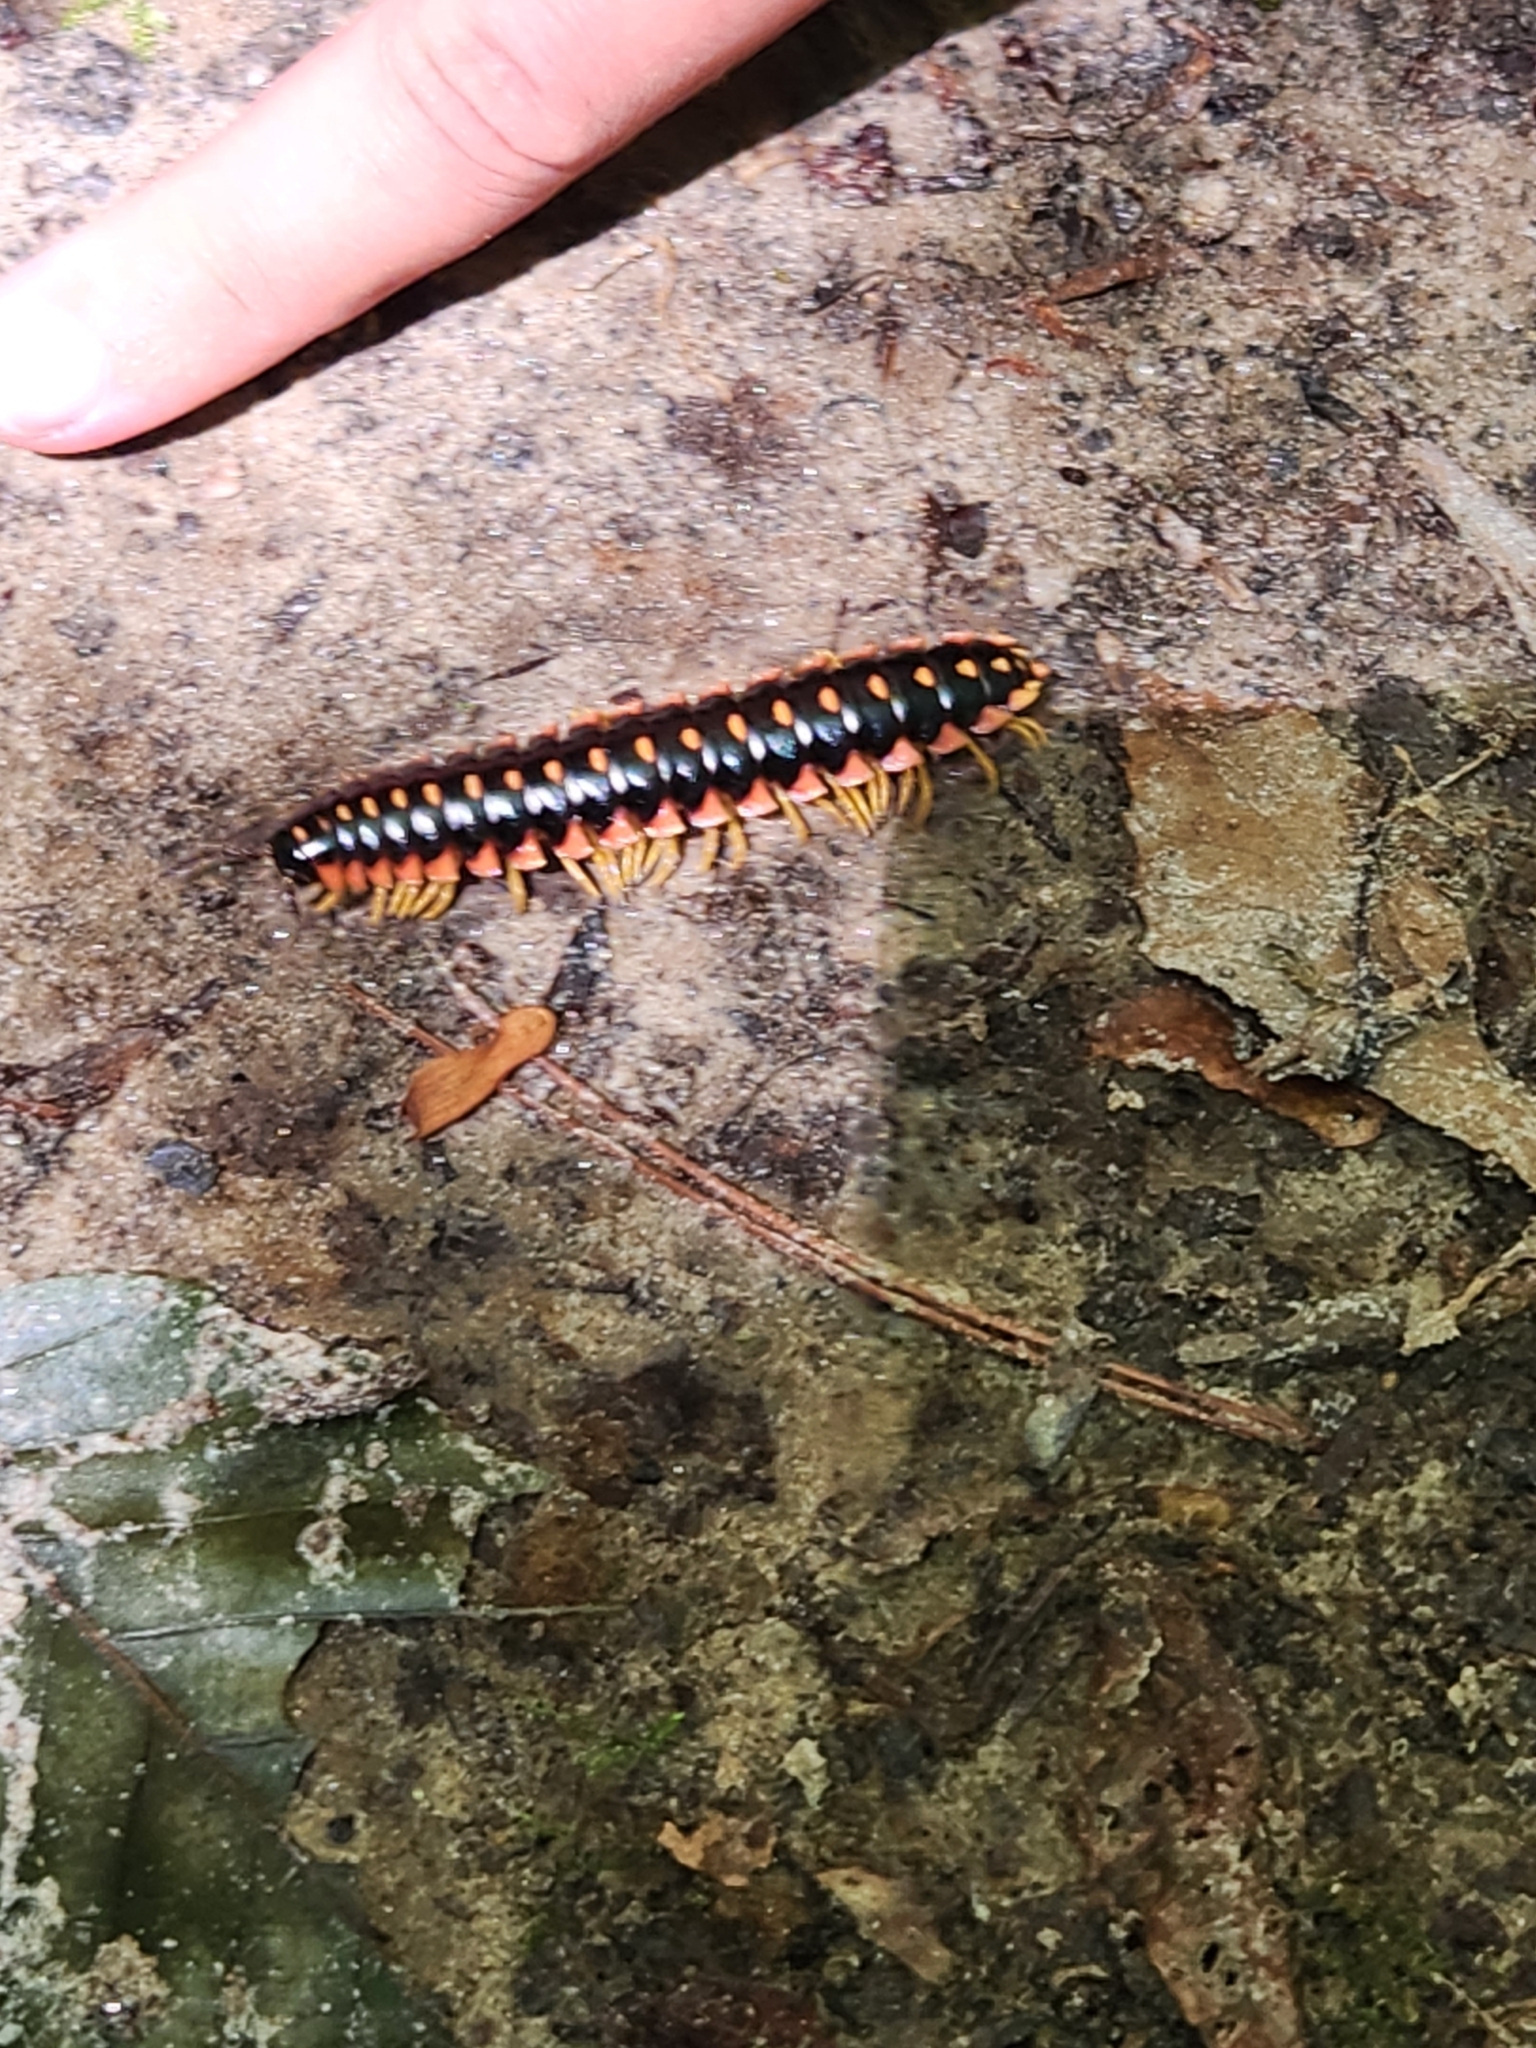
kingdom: Animalia
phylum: Arthropoda
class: Diplopoda
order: Polydesmida
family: Xystodesmidae
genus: Apheloria
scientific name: Apheloria virginiensis
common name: Black-and-gold flat millipede
